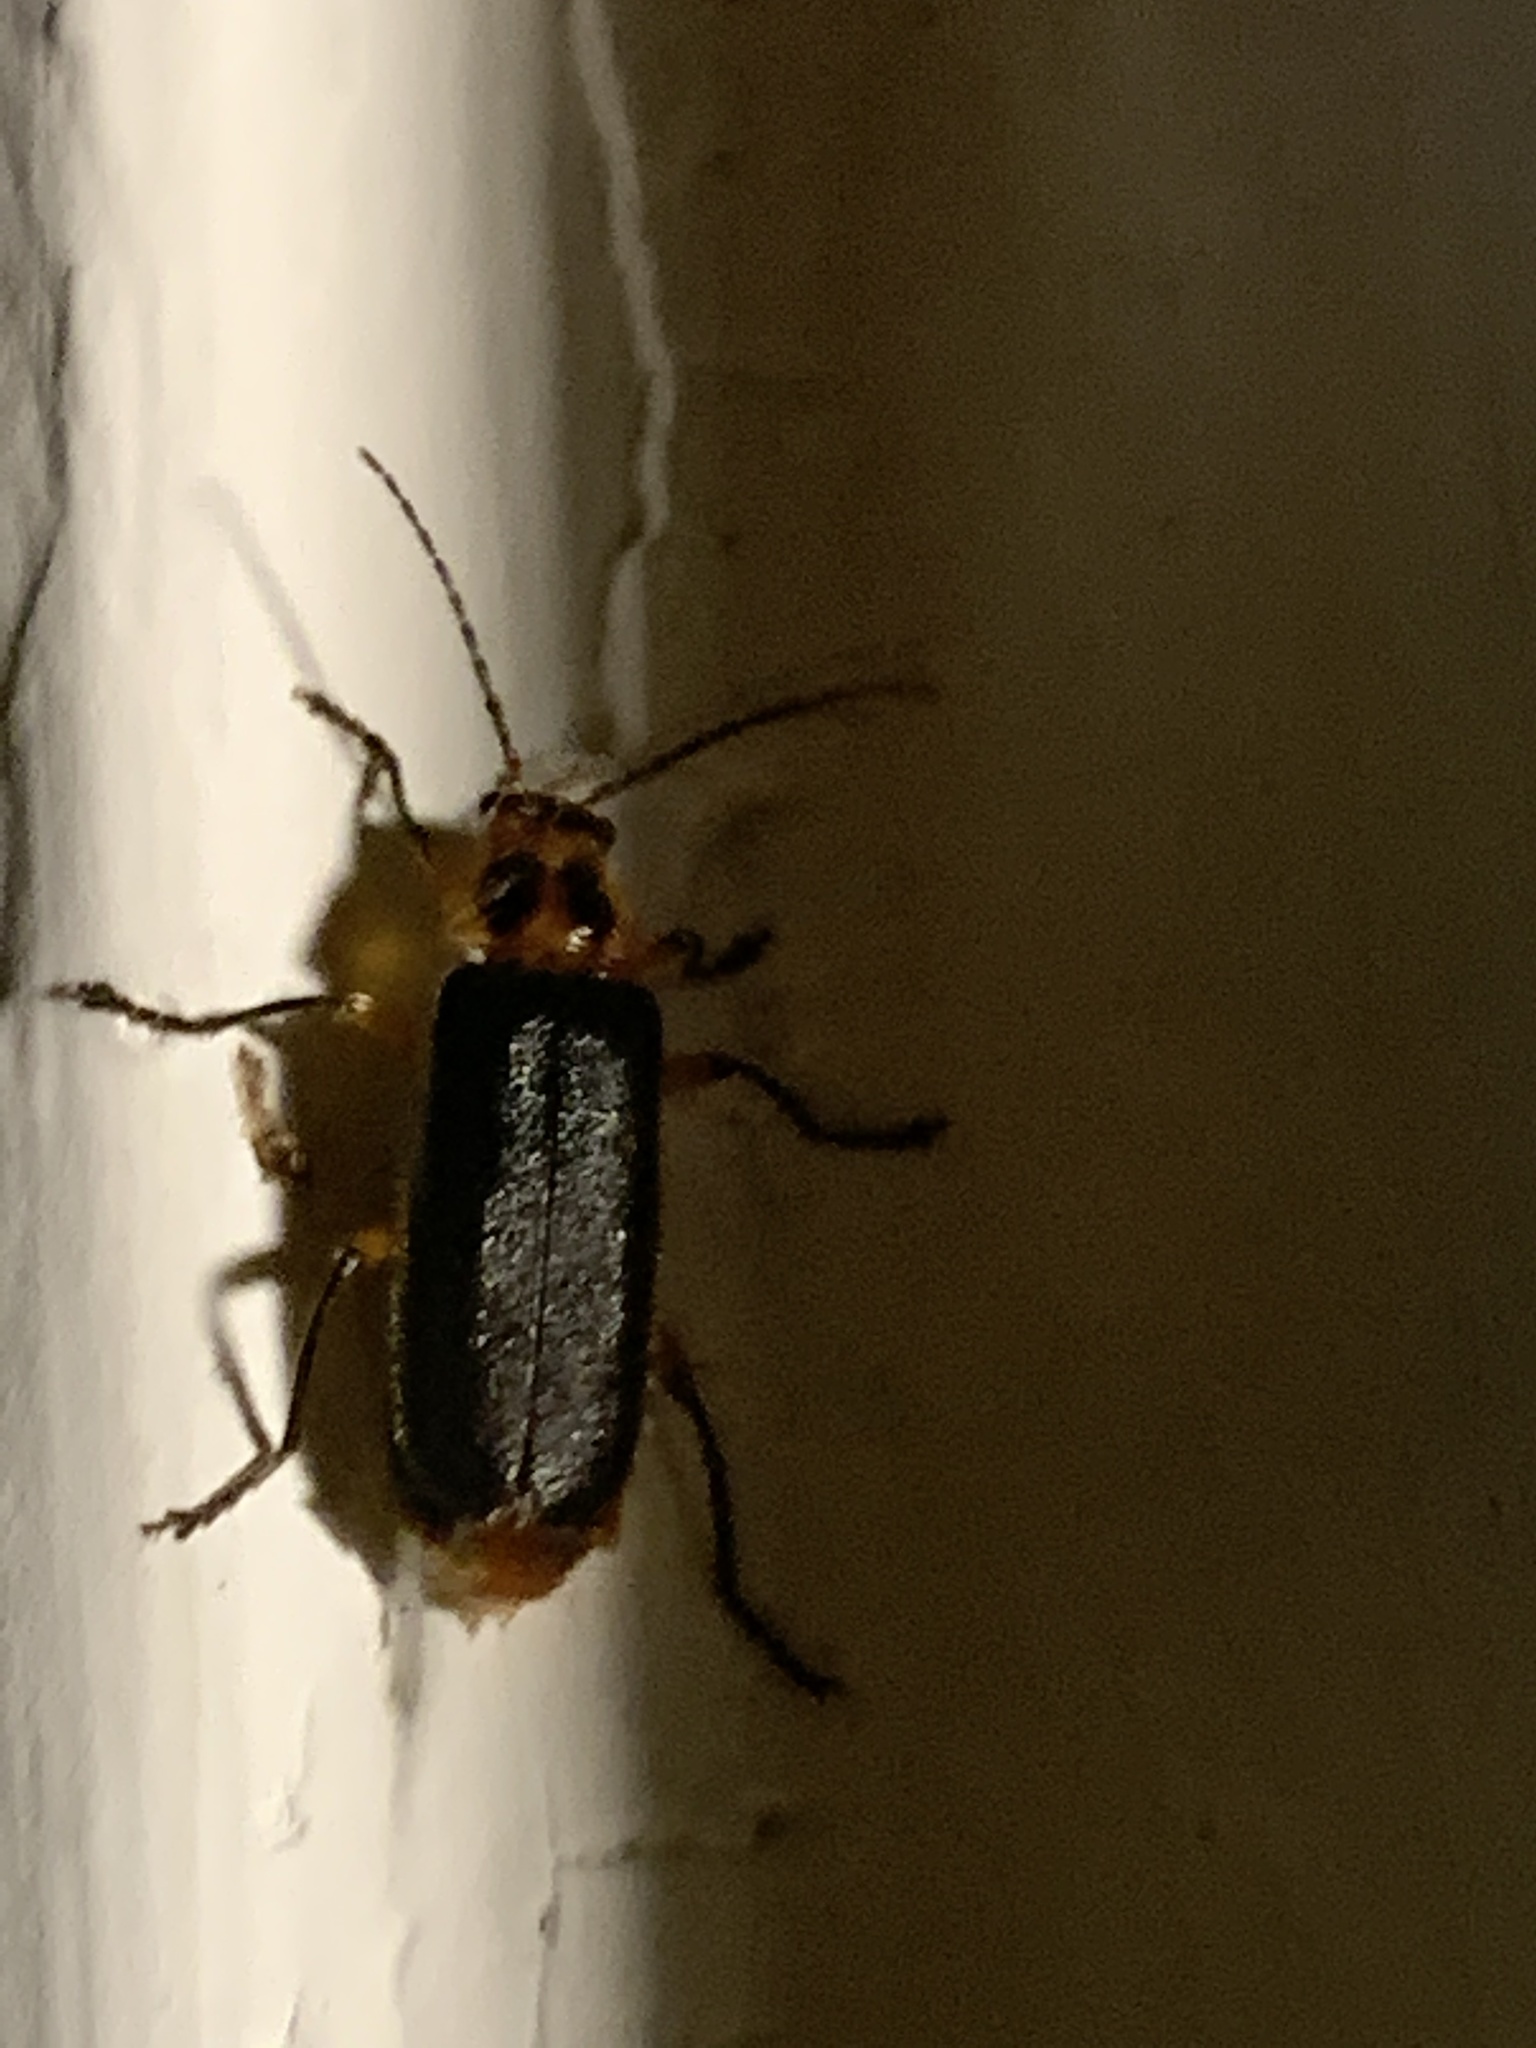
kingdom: Animalia
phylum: Arthropoda
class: Insecta
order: Coleoptera
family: Cantharidae
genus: Atalantycha
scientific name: Atalantycha bilineata
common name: Two-lined leatherwing
